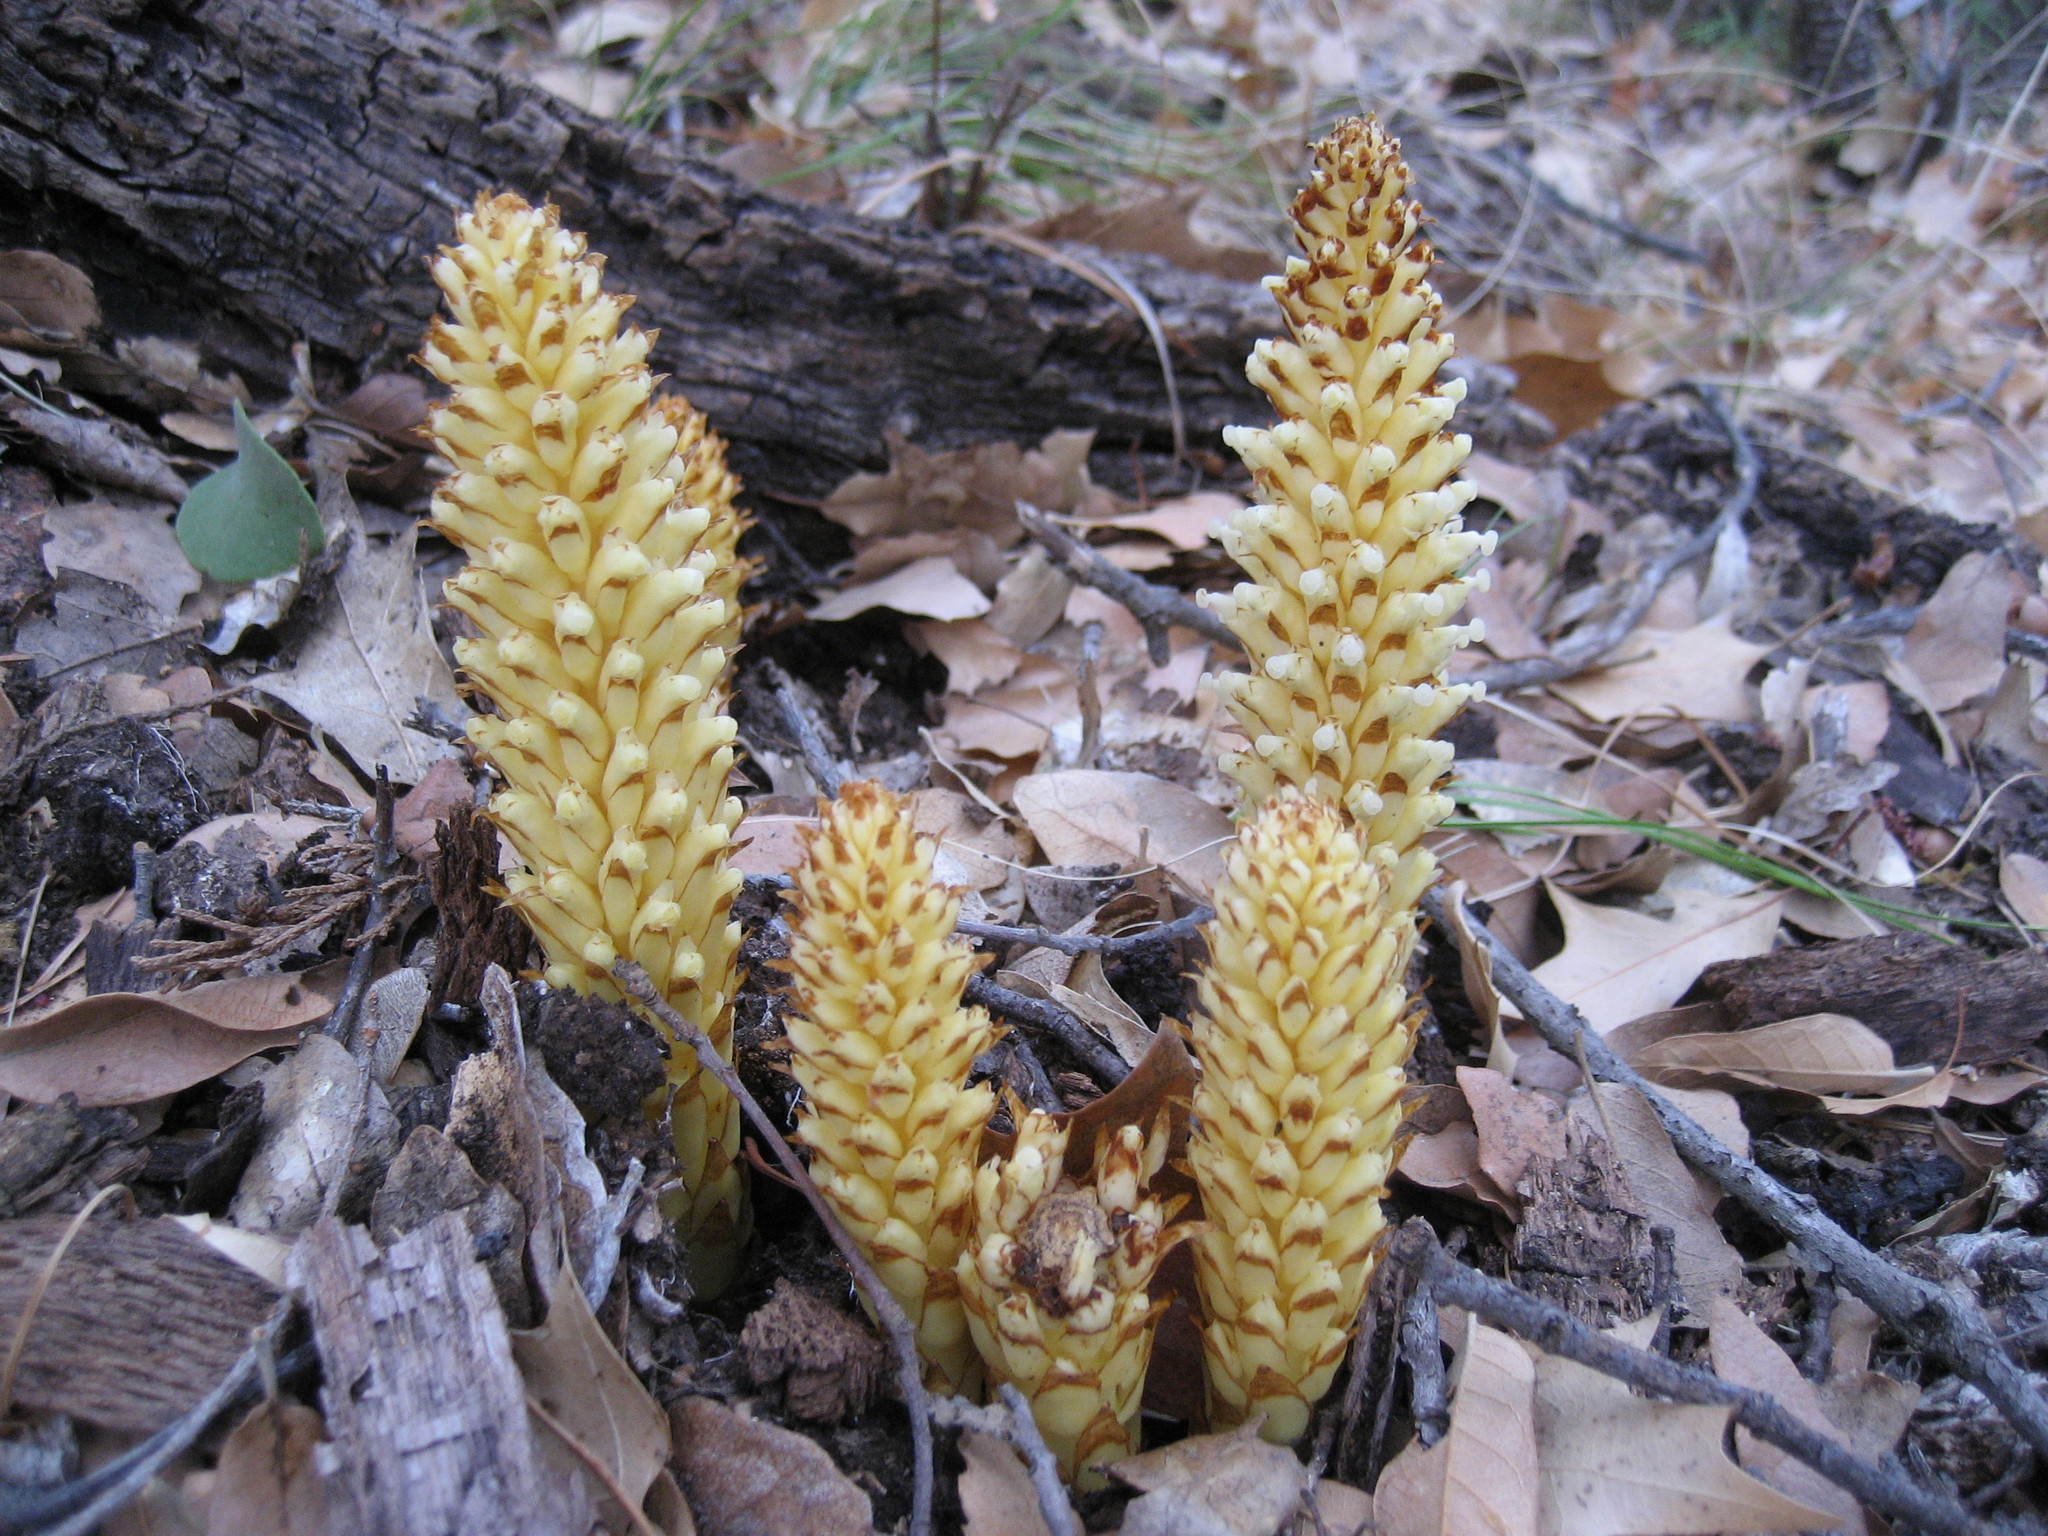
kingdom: Plantae
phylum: Tracheophyta
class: Magnoliopsida
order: Lamiales
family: Orobanchaceae
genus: Conopholis
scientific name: Conopholis alpina
